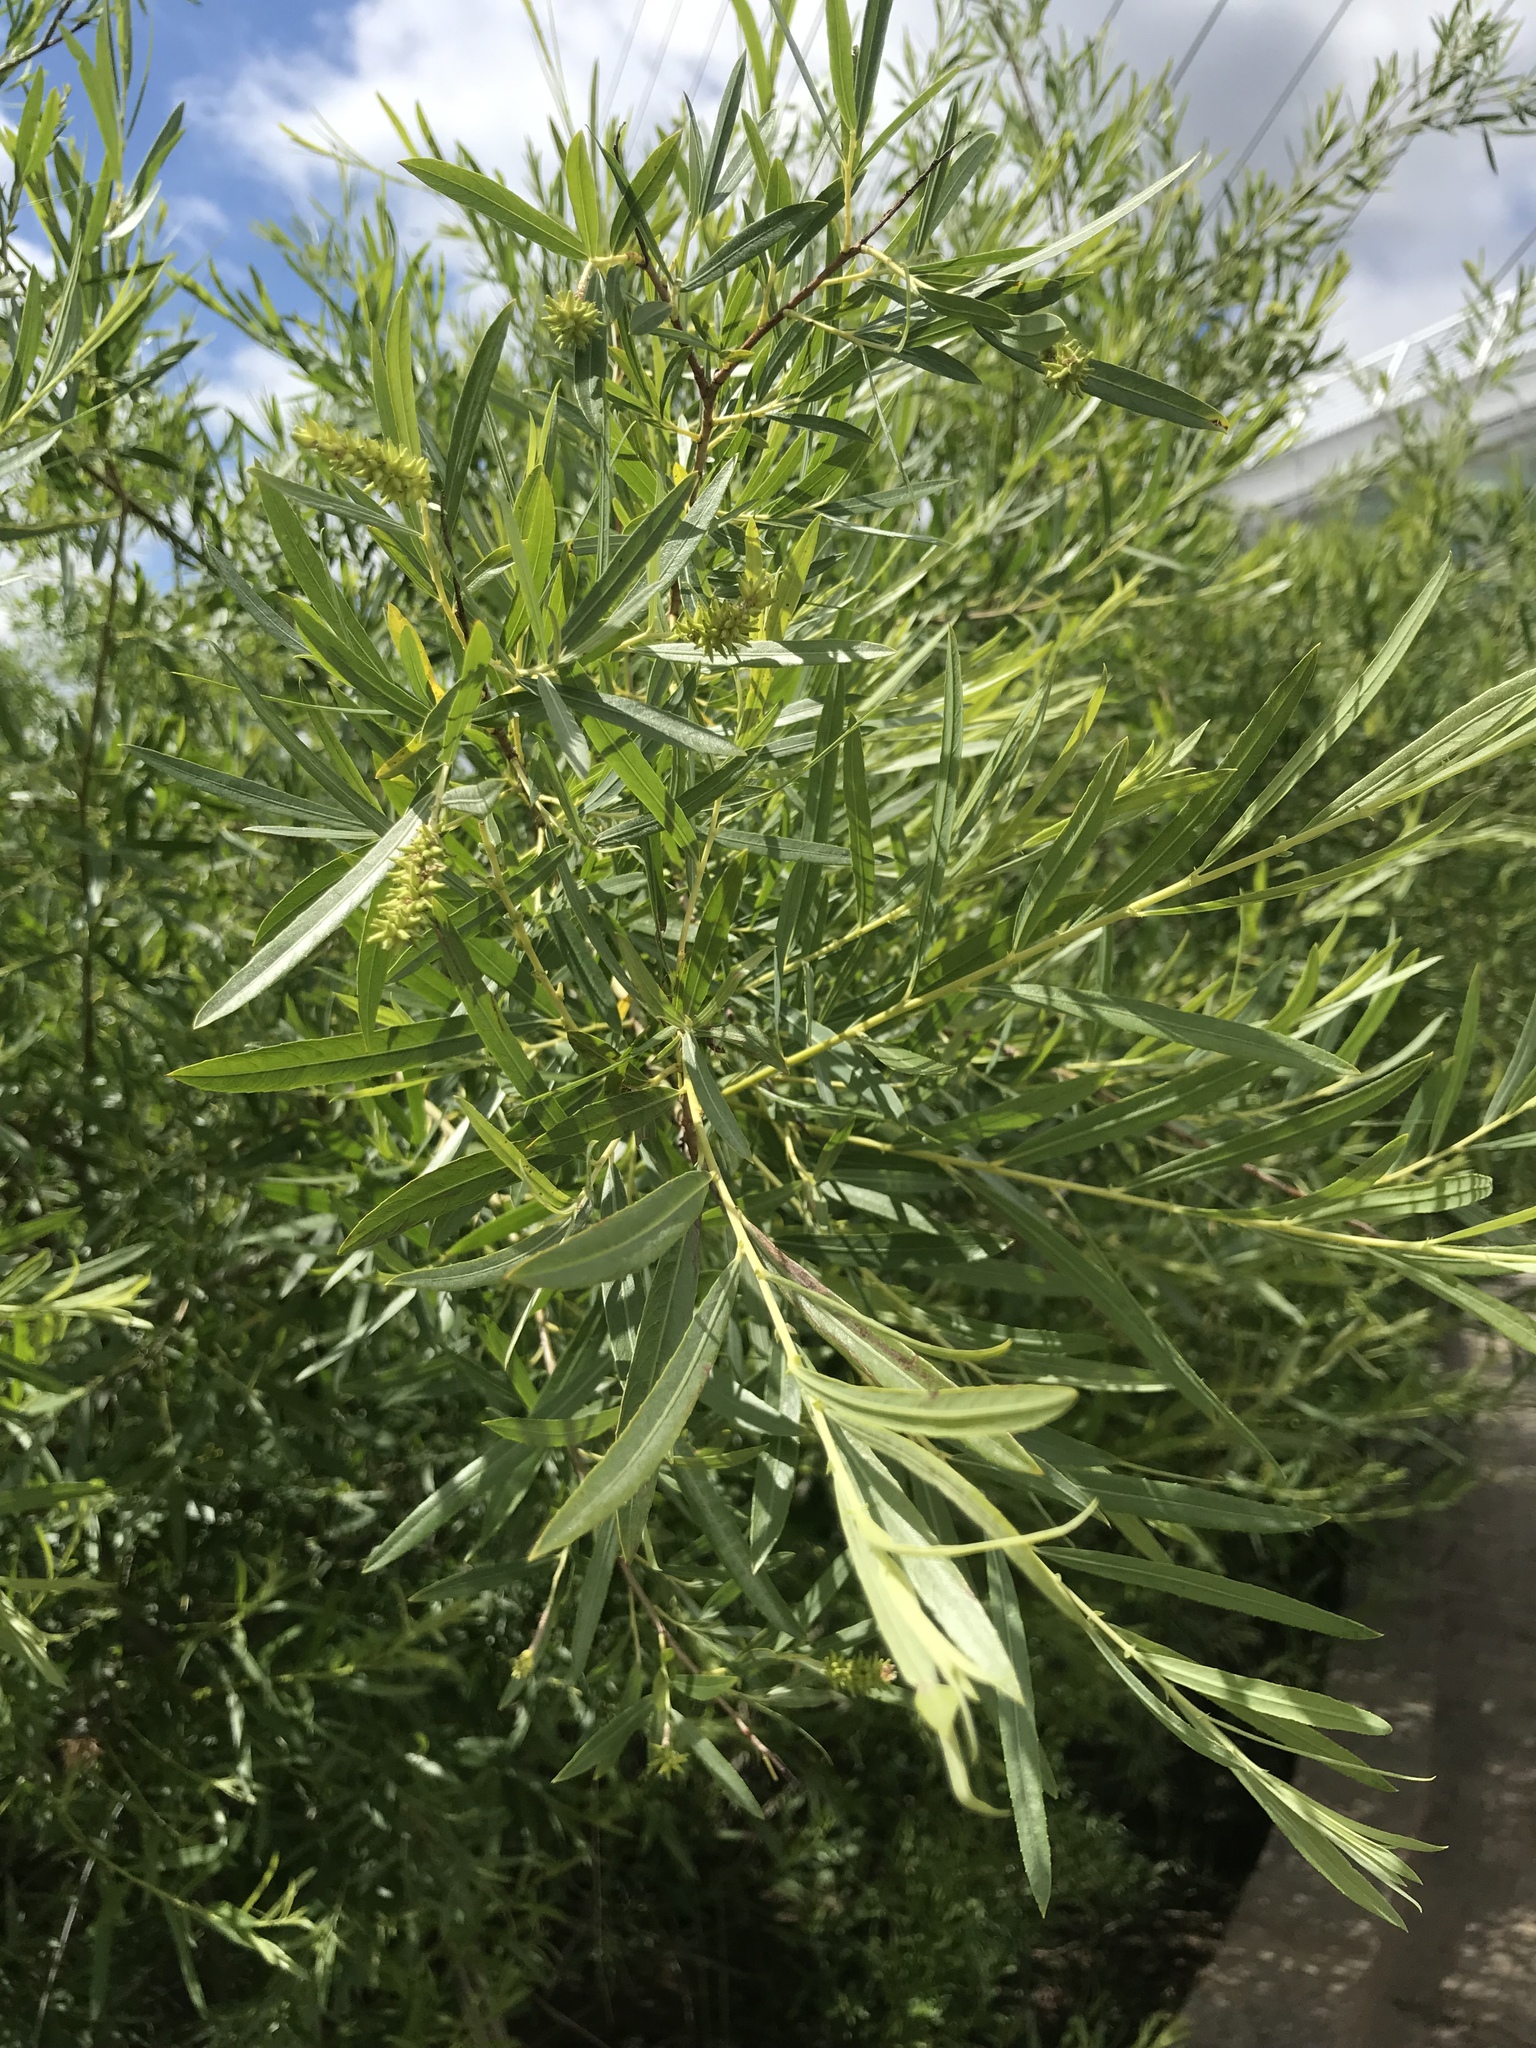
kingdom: Plantae
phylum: Tracheophyta
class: Magnoliopsida
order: Malpighiales
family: Salicaceae
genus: Salix
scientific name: Salix exigua
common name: Coyote willow
